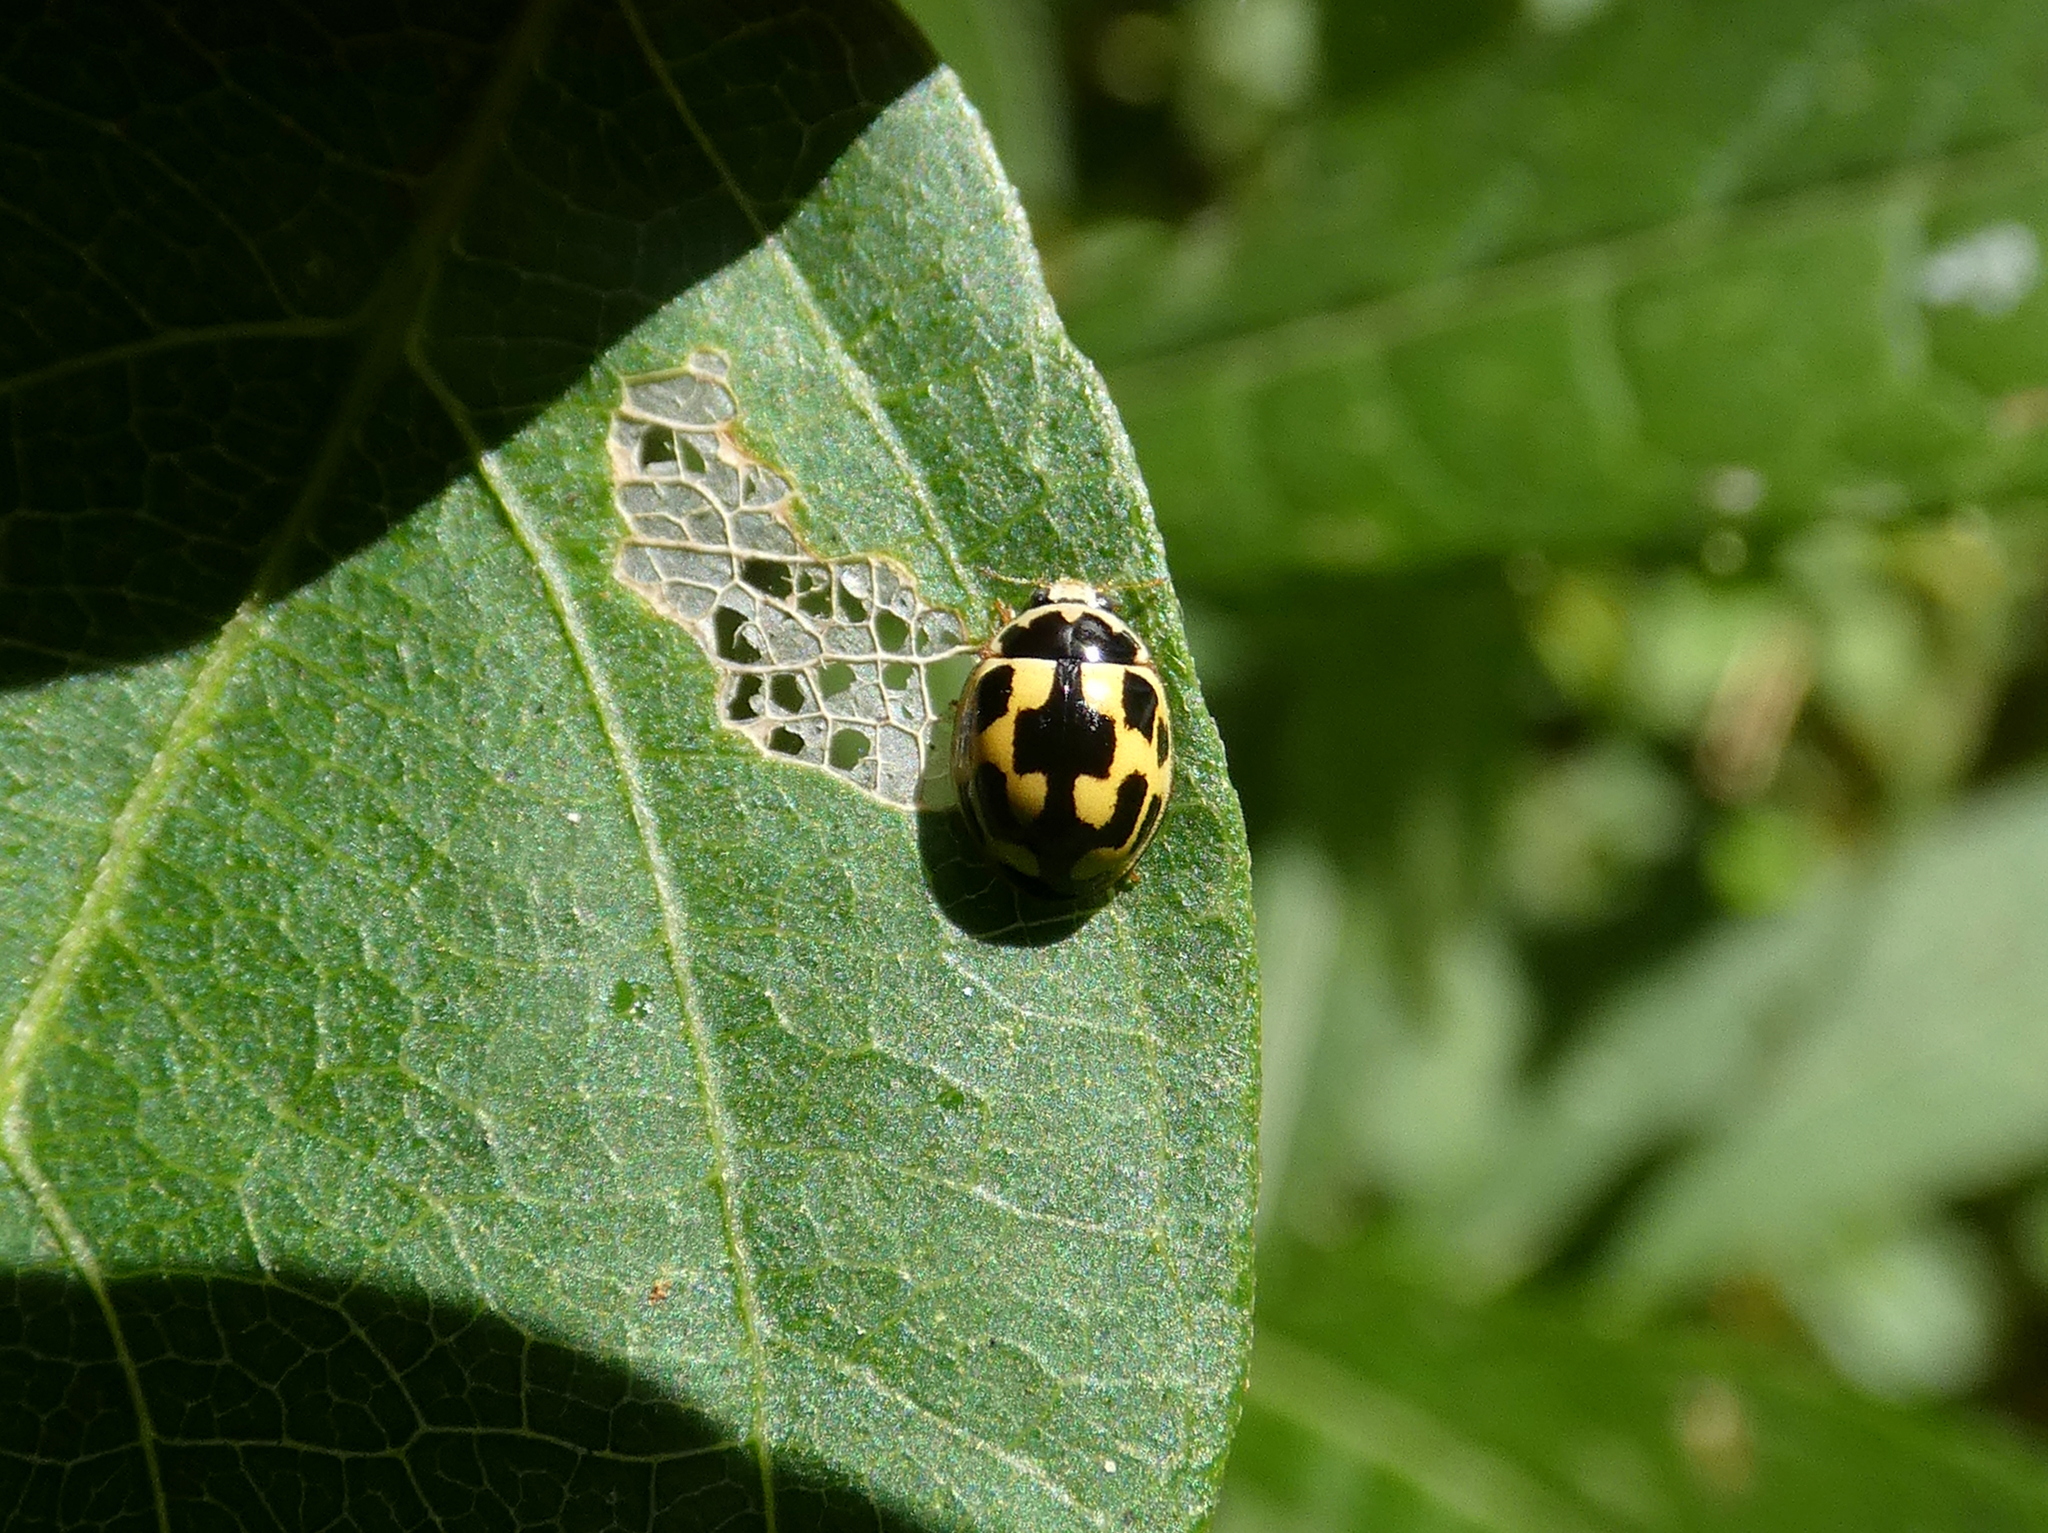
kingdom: Animalia
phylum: Arthropoda
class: Insecta
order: Coleoptera
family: Coccinellidae
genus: Propylaea
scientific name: Propylaea quatuordecimpunctata
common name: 14-spotted ladybird beetle
